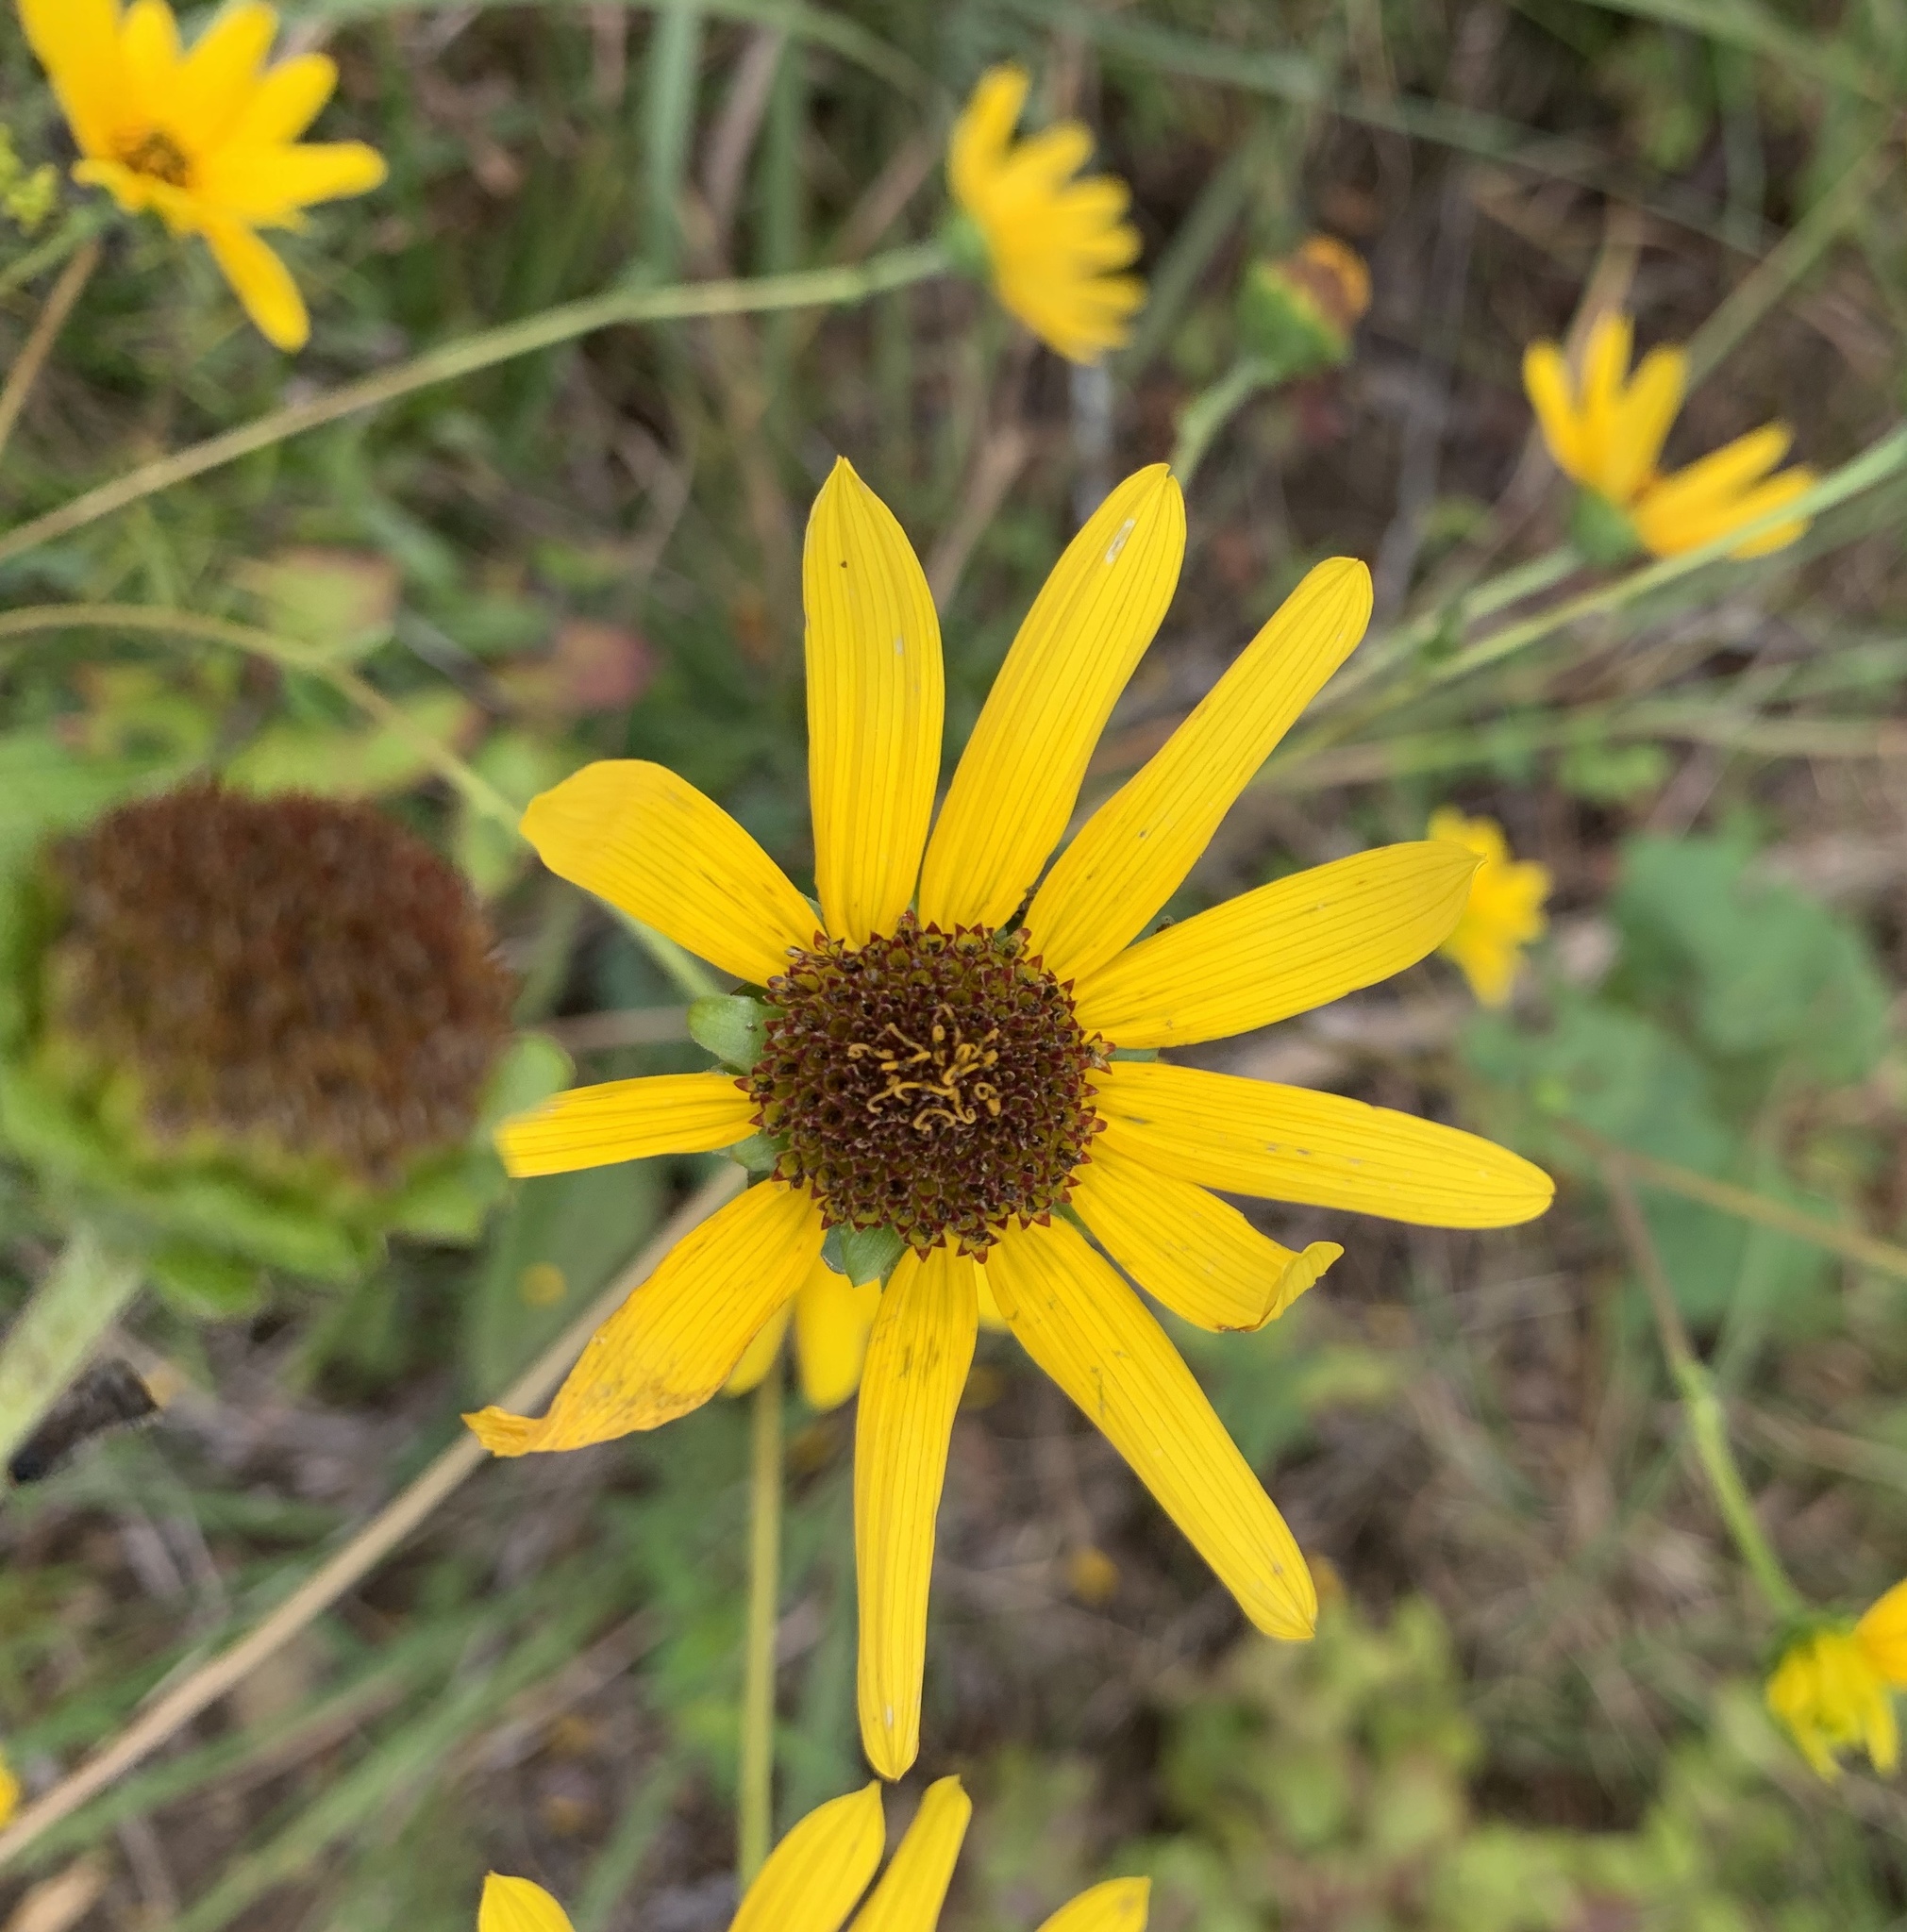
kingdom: Plantae
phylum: Tracheophyta
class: Magnoliopsida
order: Asterales
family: Asteraceae
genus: Helianthus
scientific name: Helianthus atrorubens
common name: Dark-eyed sunflower
